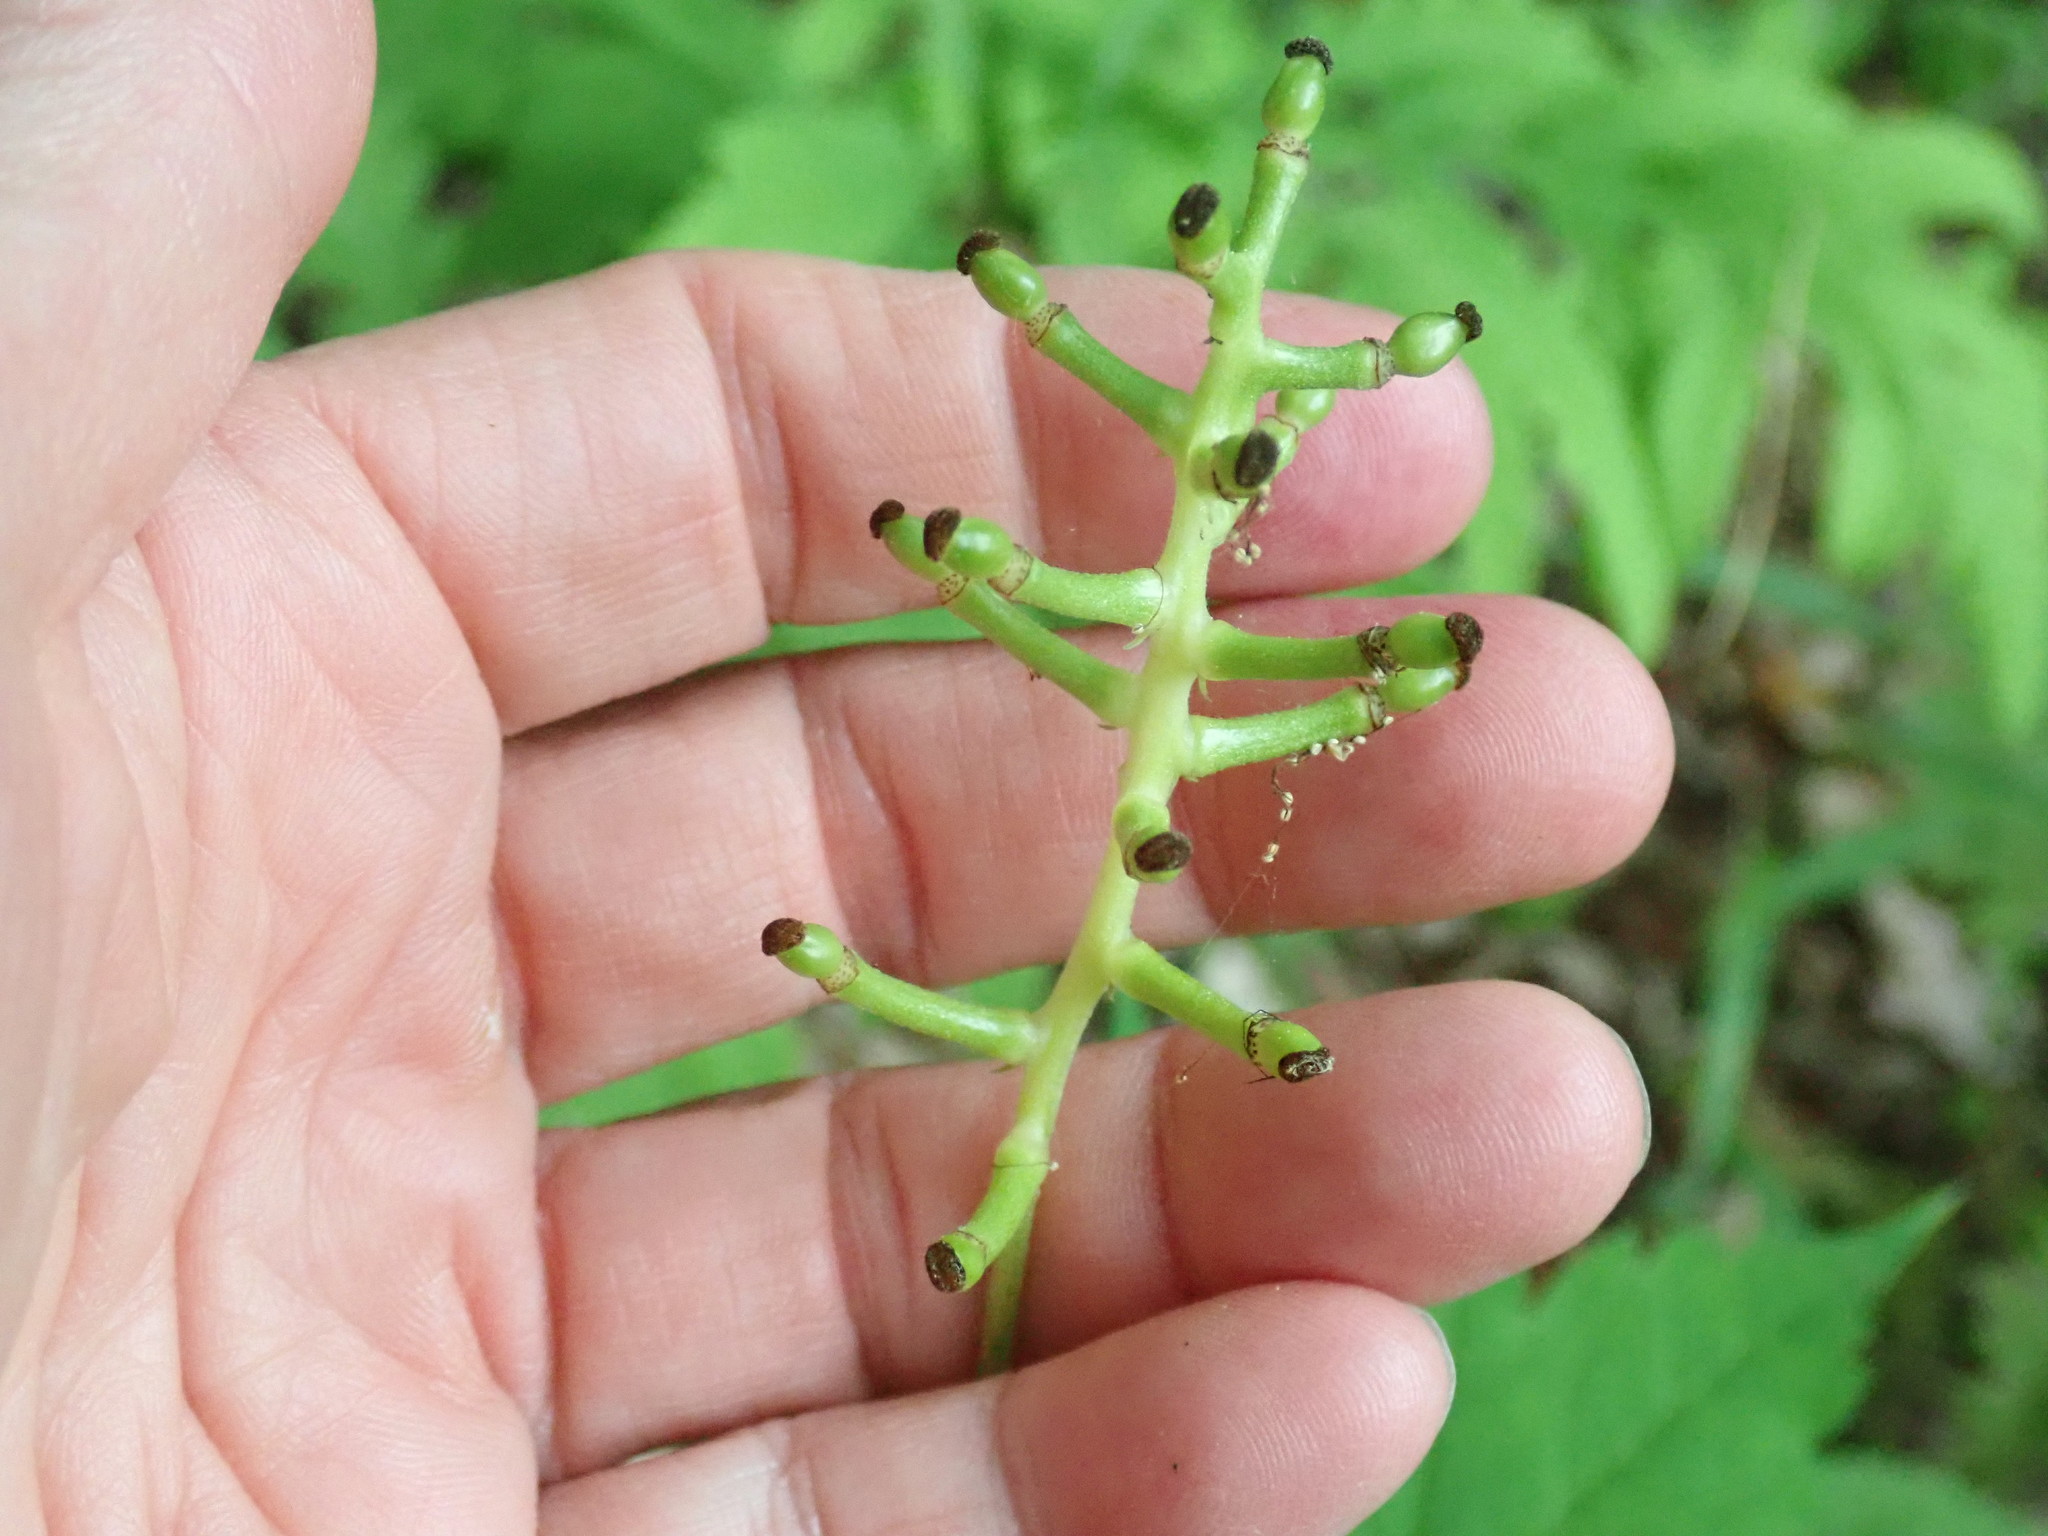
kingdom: Plantae
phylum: Tracheophyta
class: Magnoliopsida
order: Ranunculales
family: Ranunculaceae
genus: Actaea
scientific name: Actaea pachypoda
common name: Doll's-eyes
